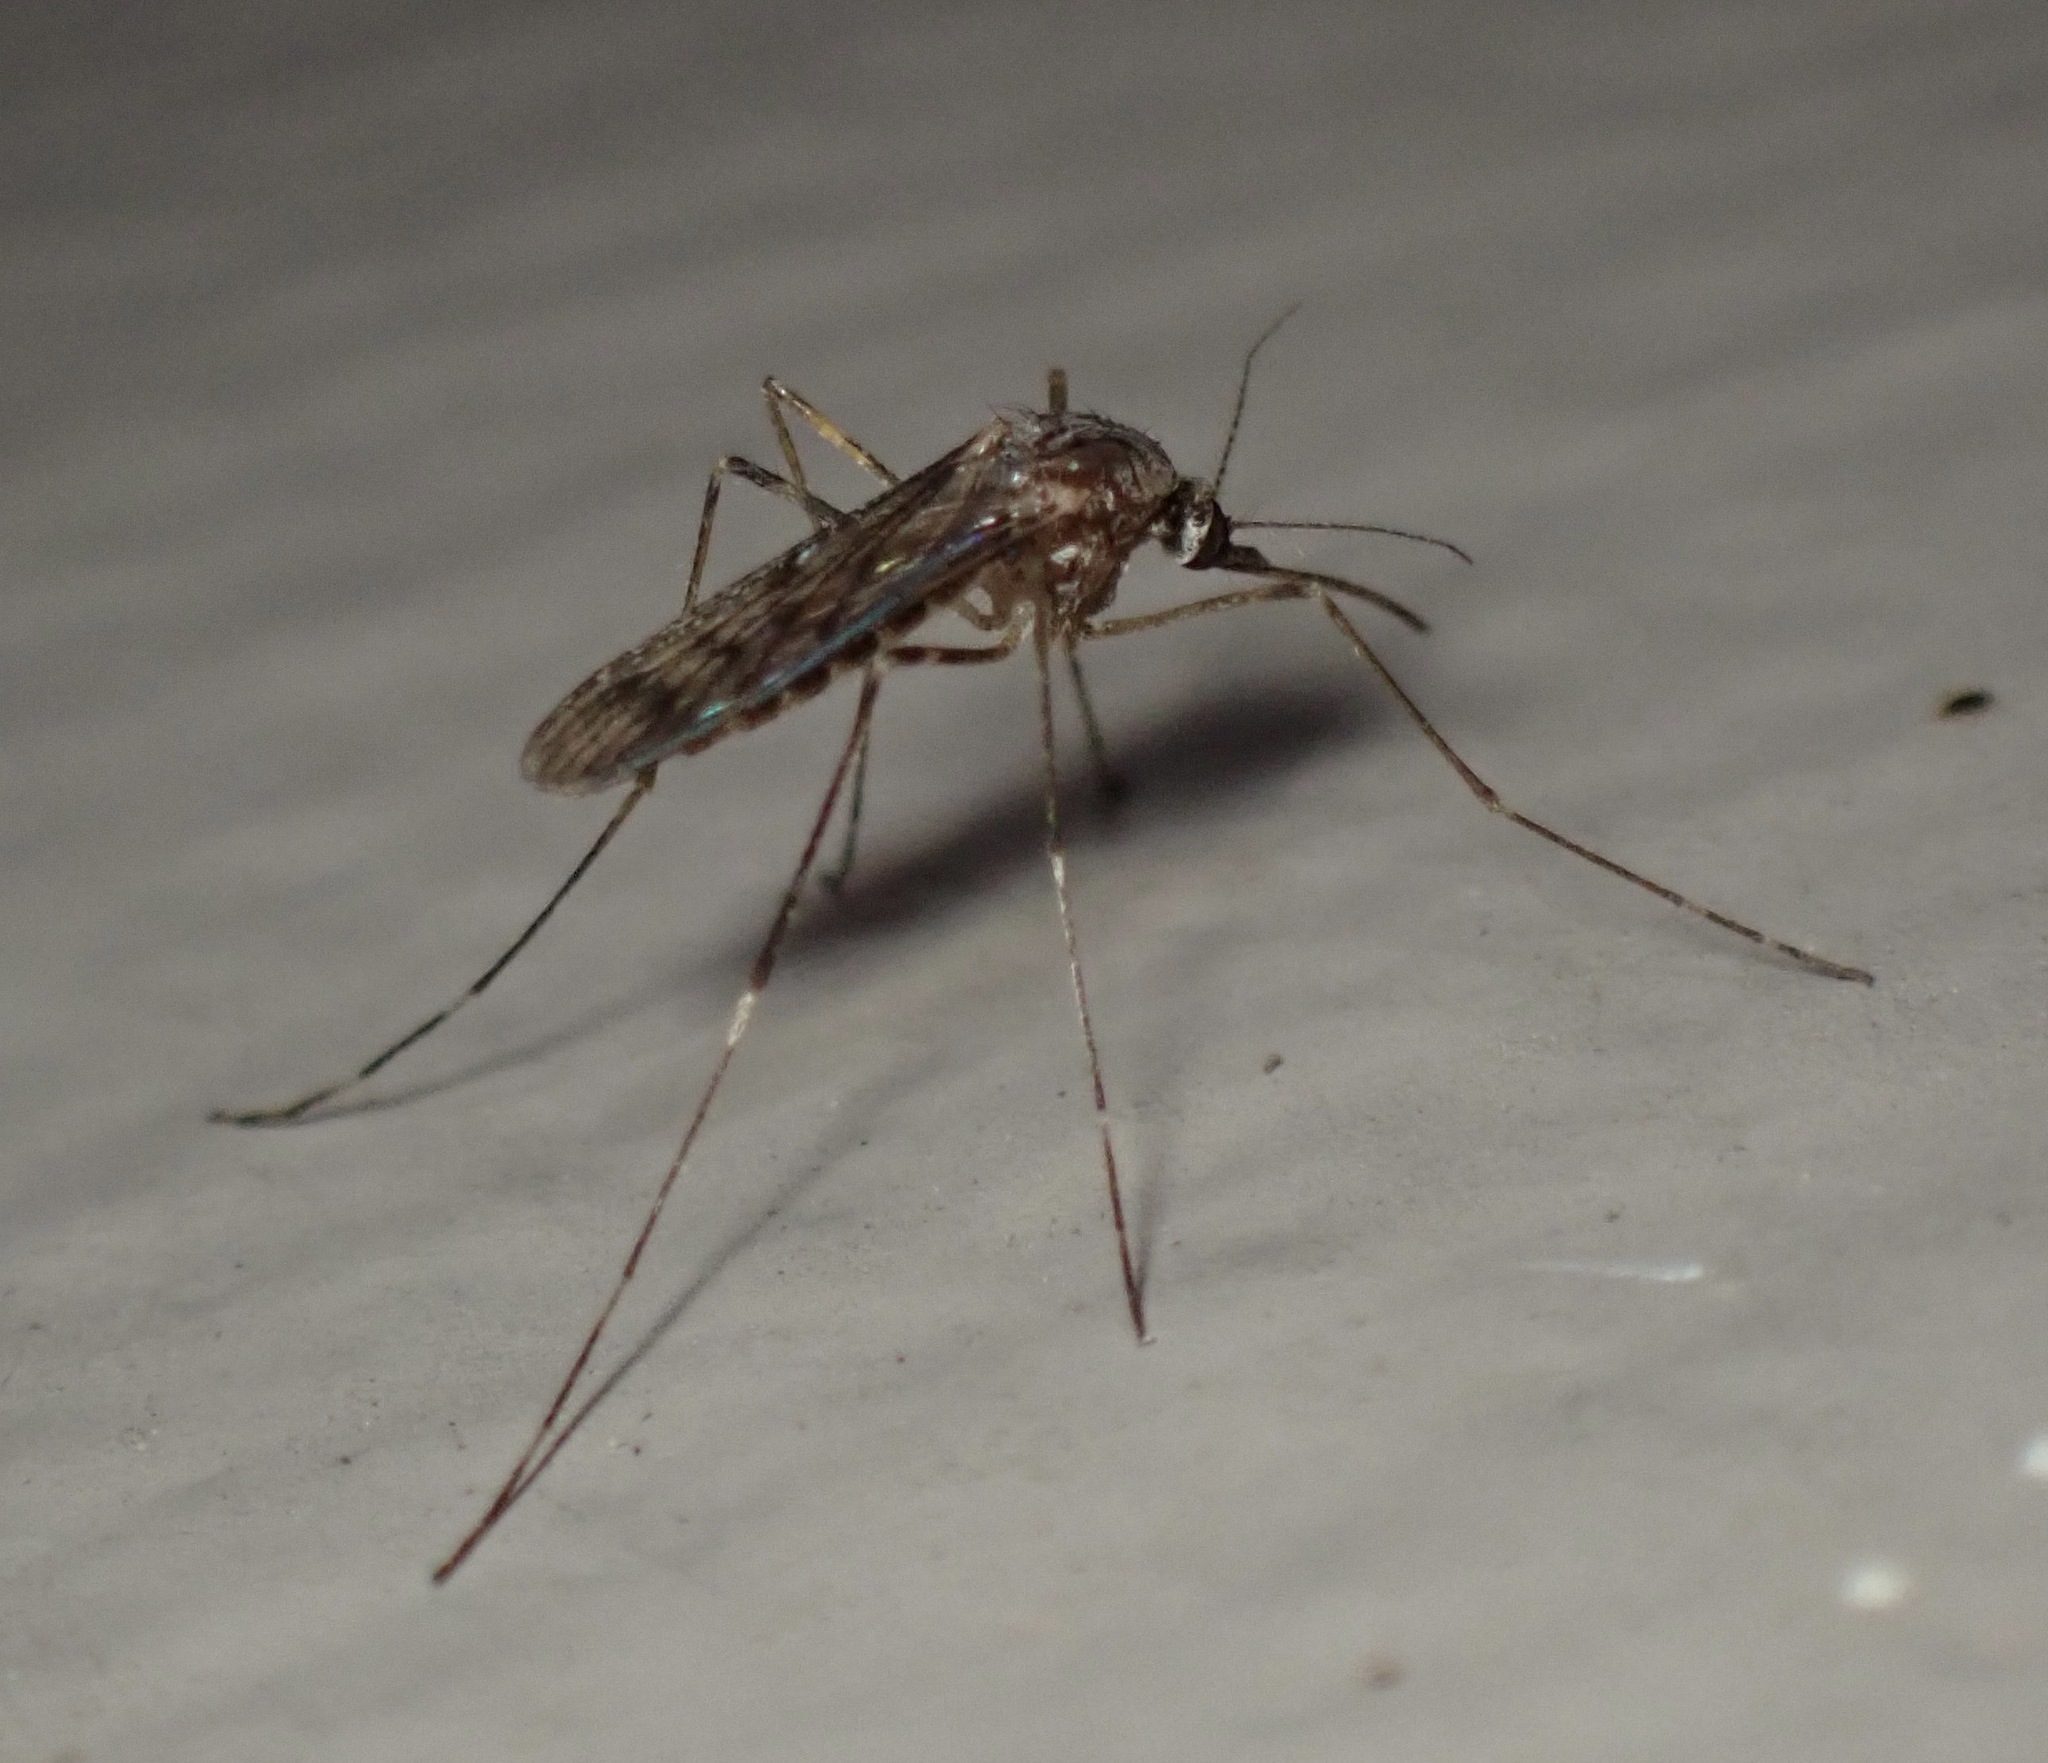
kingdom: Animalia
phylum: Arthropoda
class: Insecta
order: Diptera
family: Culicidae
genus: Culiseta
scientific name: Culiseta particeps
